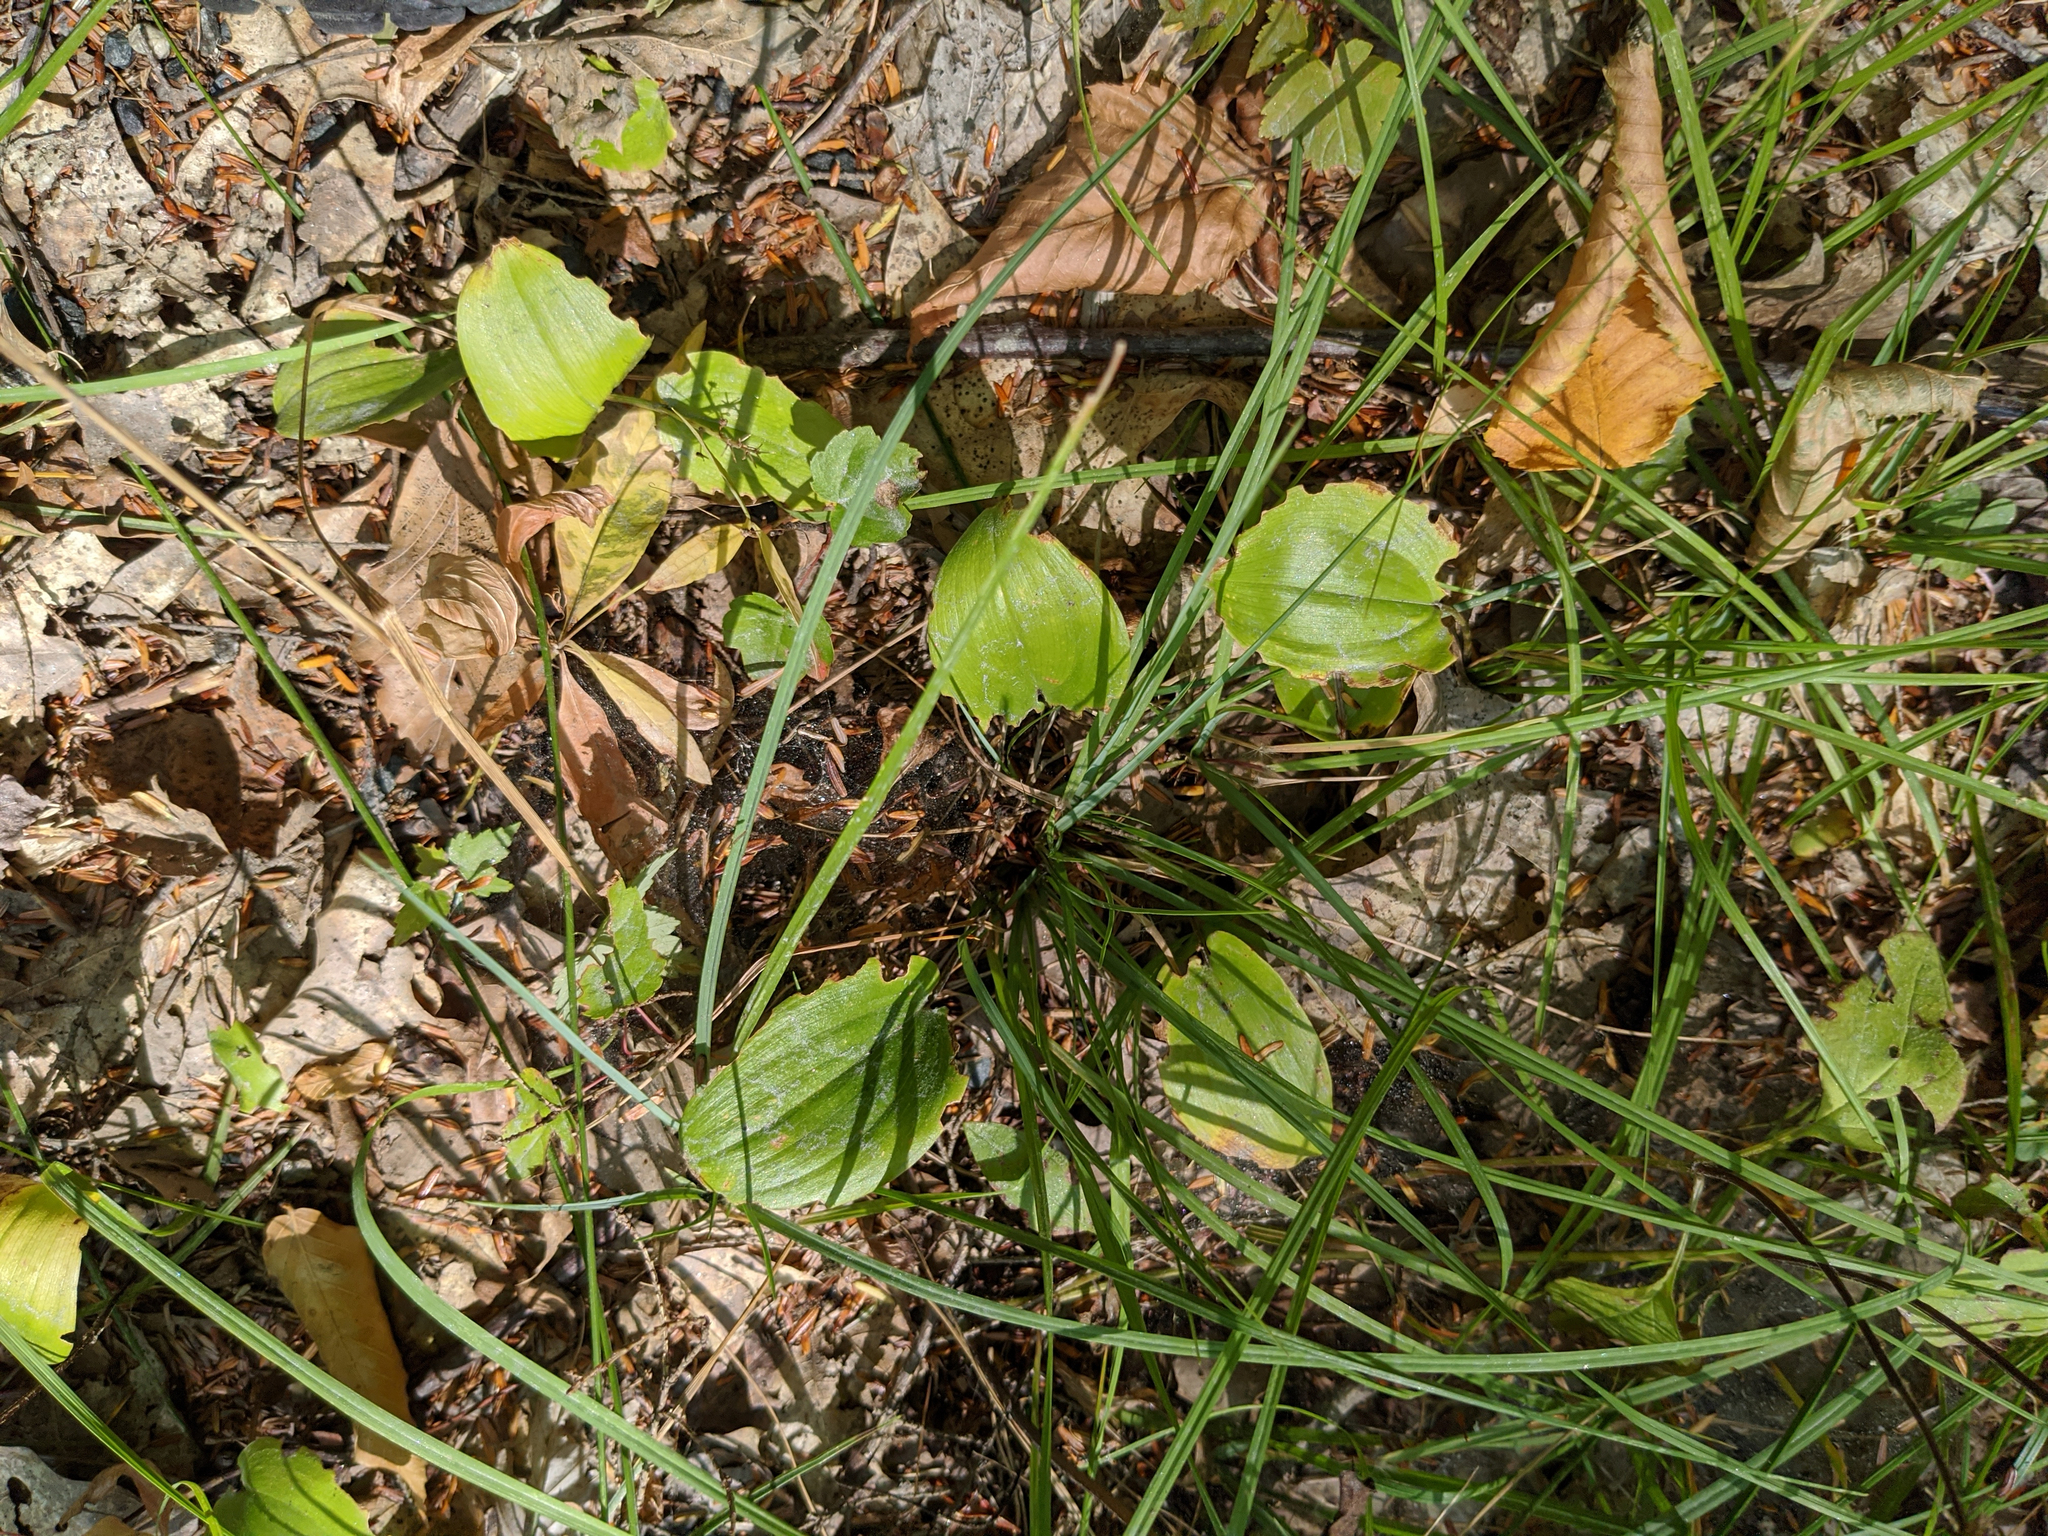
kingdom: Plantae
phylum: Tracheophyta
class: Liliopsida
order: Asparagales
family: Asparagaceae
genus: Maianthemum
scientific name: Maianthemum canadense
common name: False lily-of-the-valley
